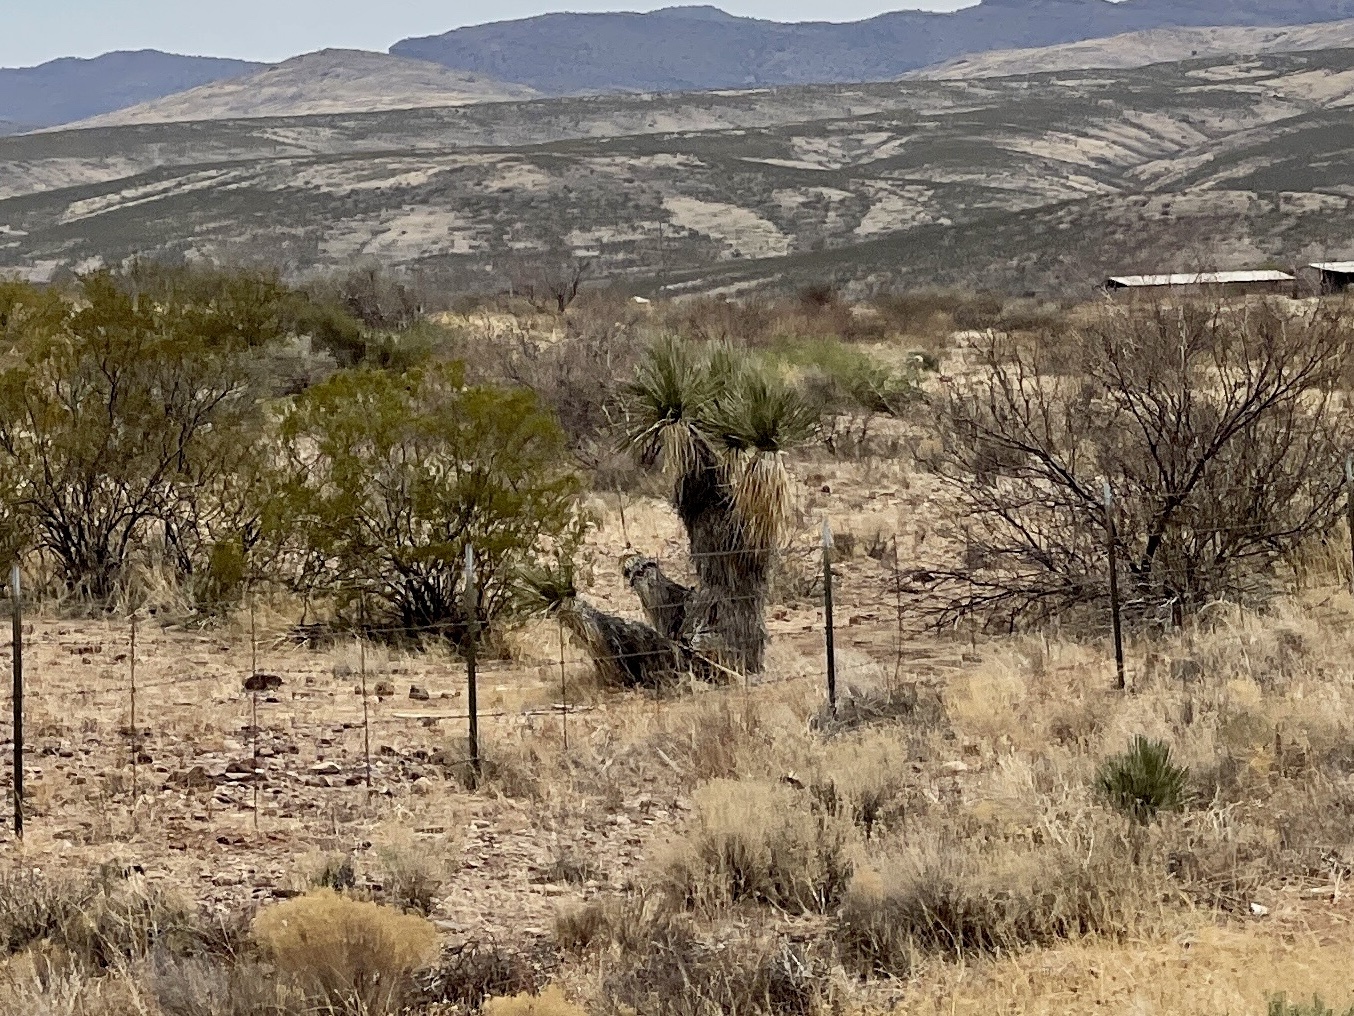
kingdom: Plantae
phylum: Tracheophyta
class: Liliopsida
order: Asparagales
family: Asparagaceae
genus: Yucca
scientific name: Yucca elata
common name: Palmella
